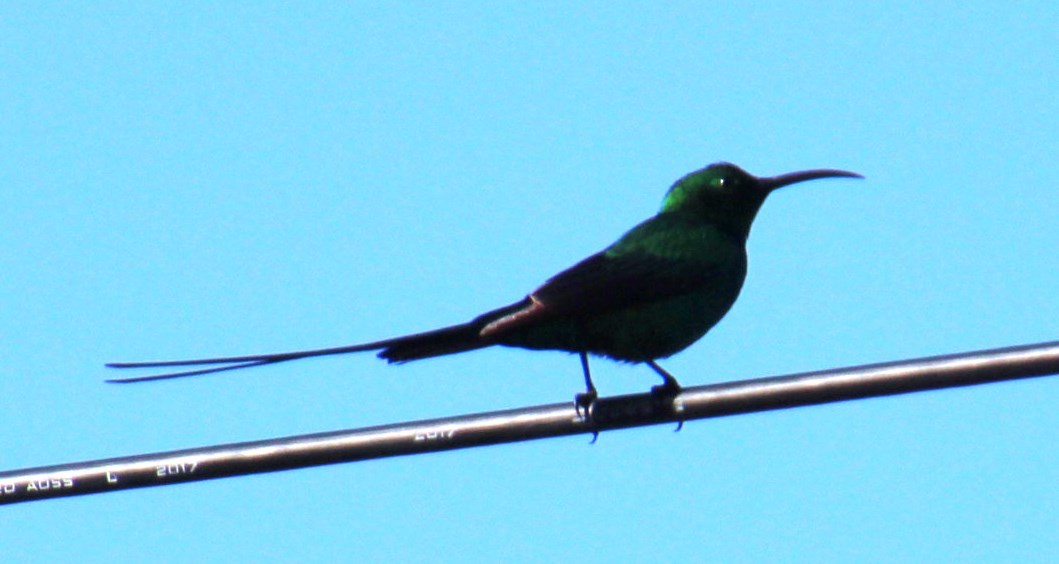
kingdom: Animalia
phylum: Chordata
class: Aves
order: Passeriformes
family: Nectariniidae
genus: Nectarinia
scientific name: Nectarinia famosa
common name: Malachite sunbird
